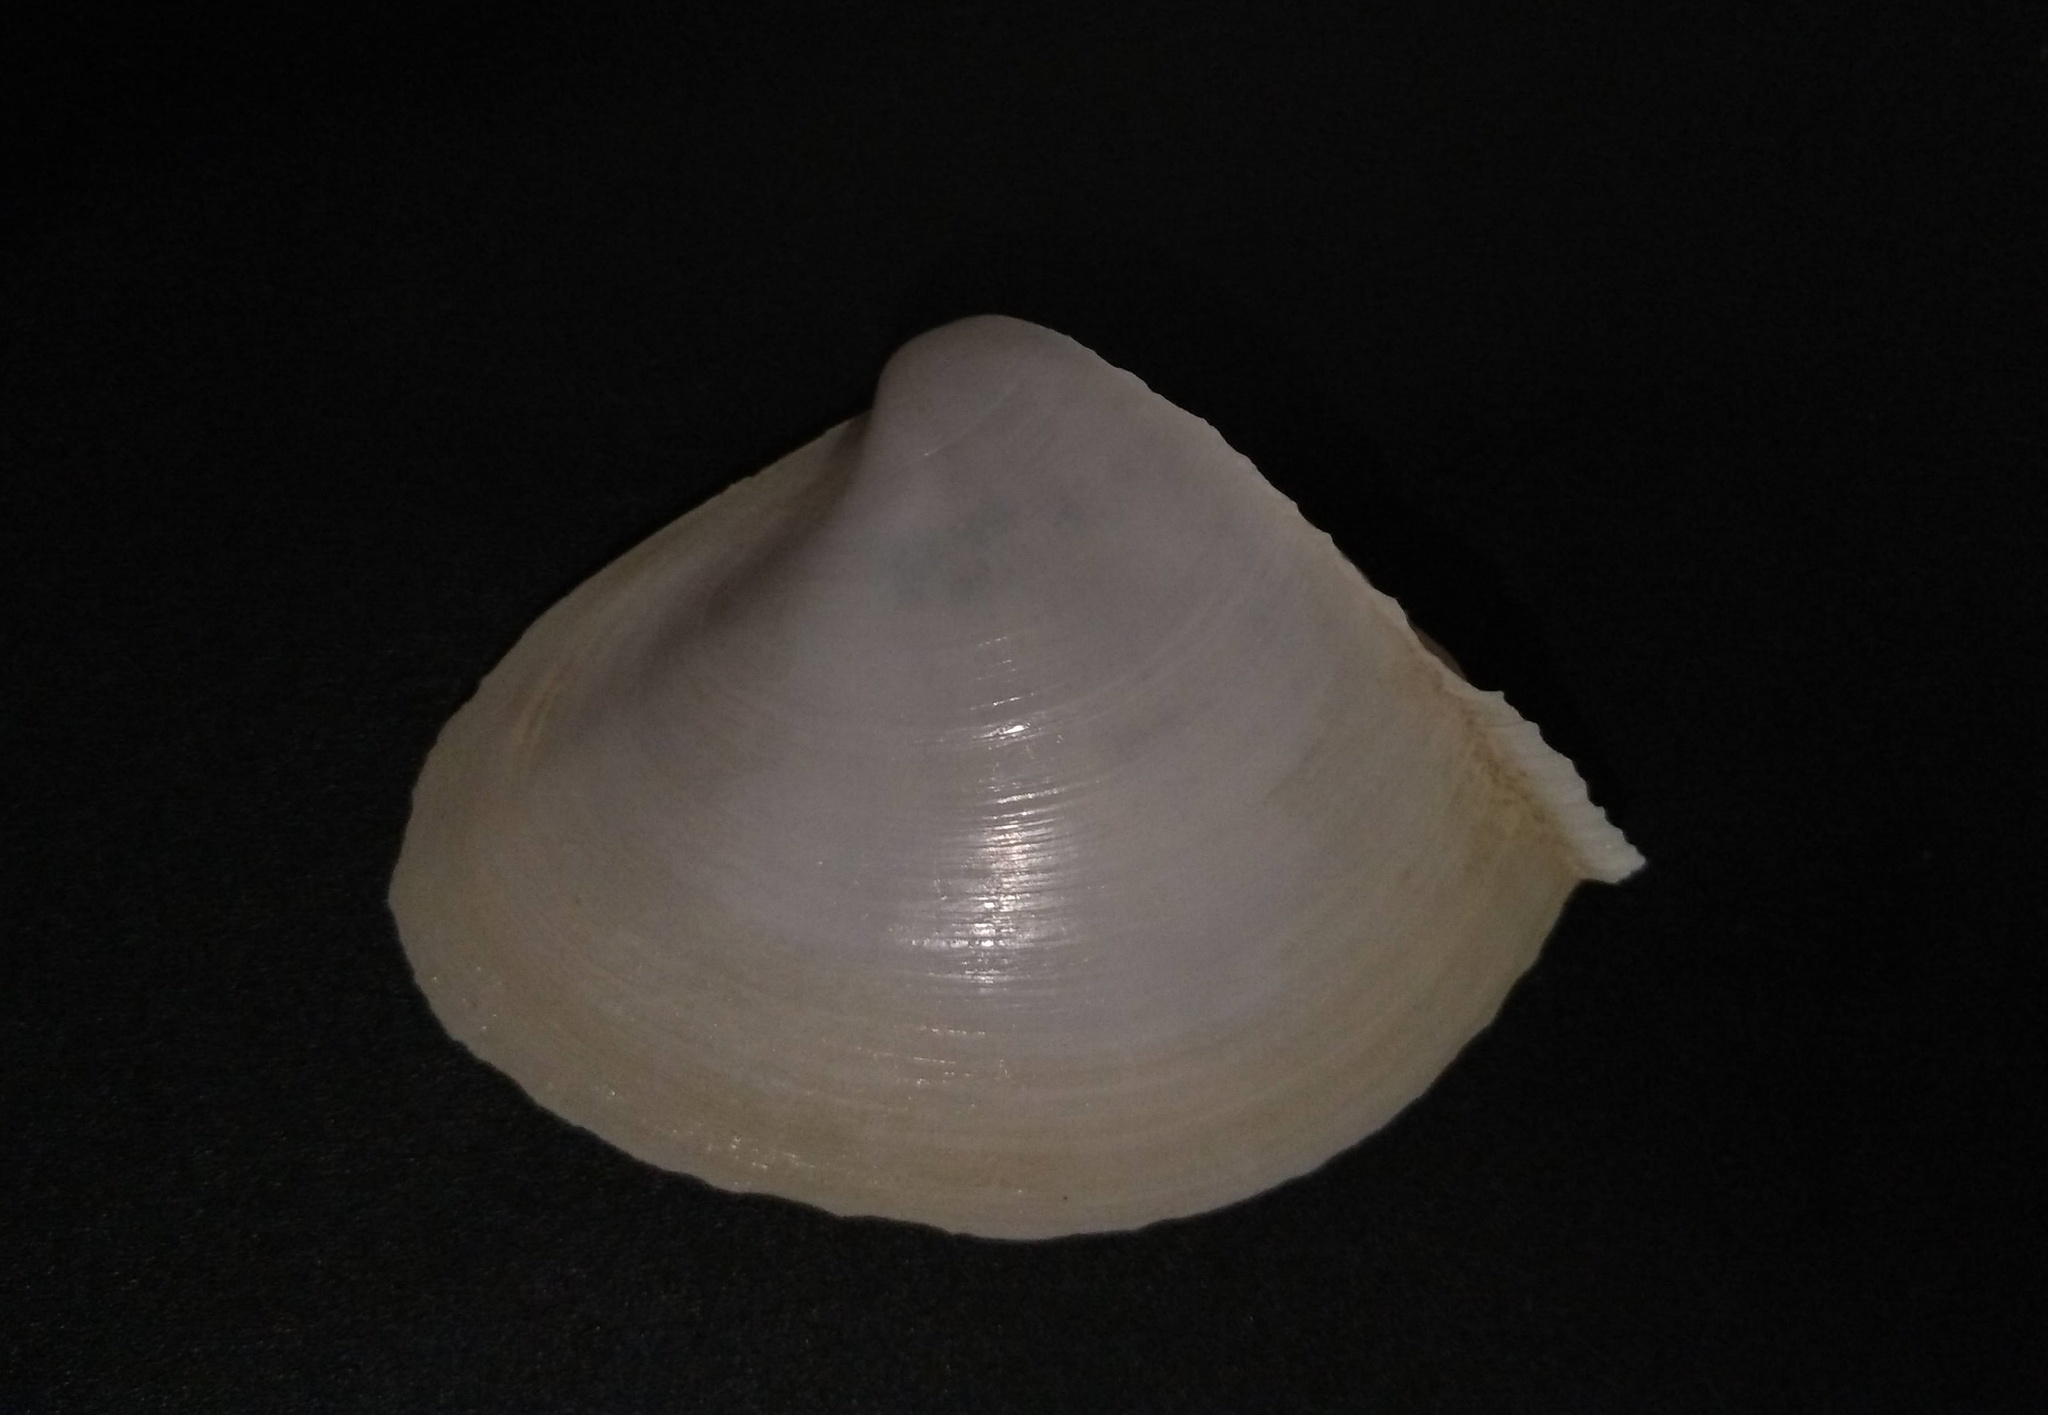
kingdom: Animalia
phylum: Mollusca
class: Bivalvia
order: Venerida
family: Mactridae
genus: Mactrellona
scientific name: Mactrellona alata
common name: Winged surfclam
